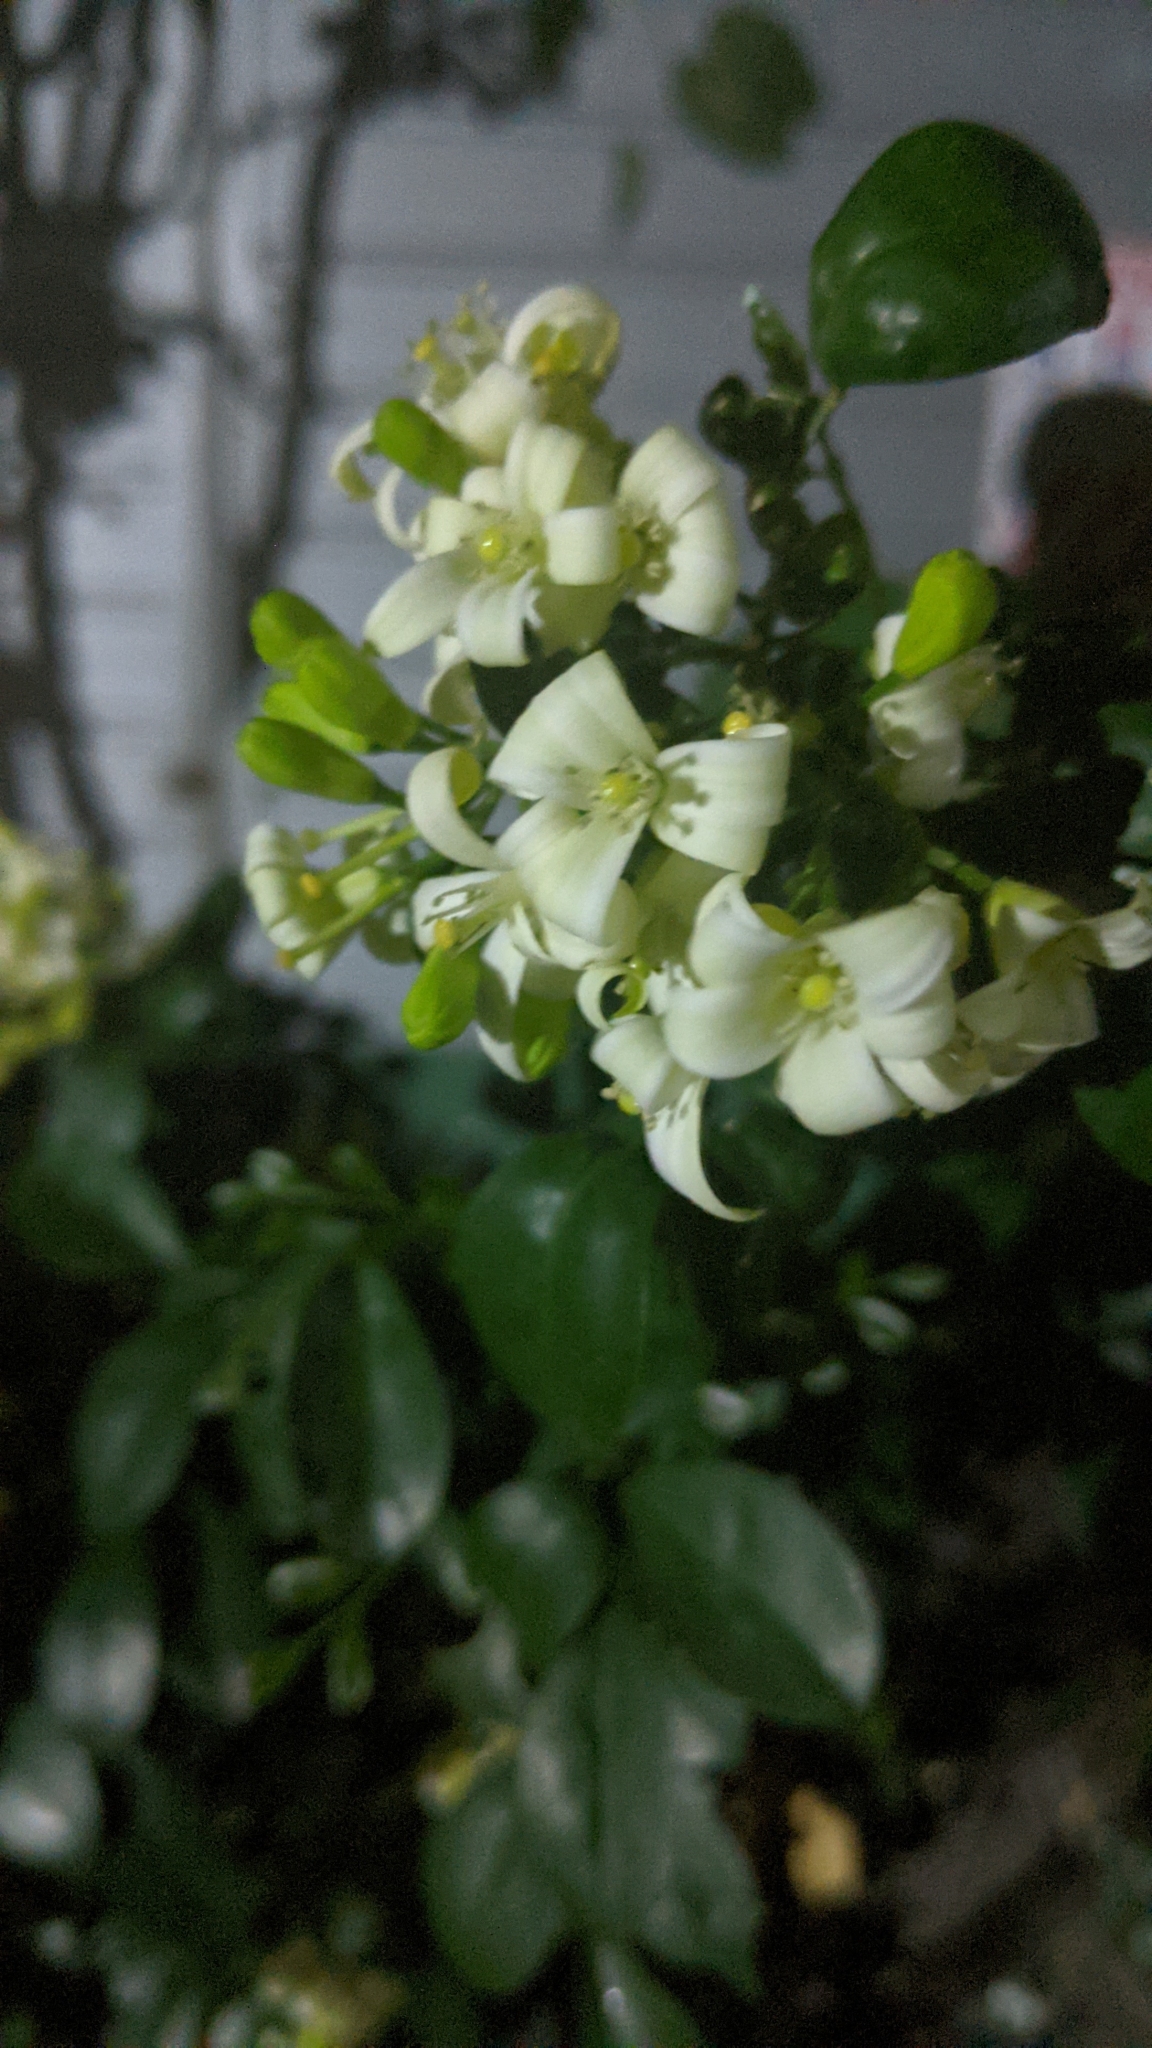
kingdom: Plantae
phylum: Tracheophyta
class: Magnoliopsida
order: Sapindales
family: Rutaceae
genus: Murraya
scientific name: Murraya paniculata
